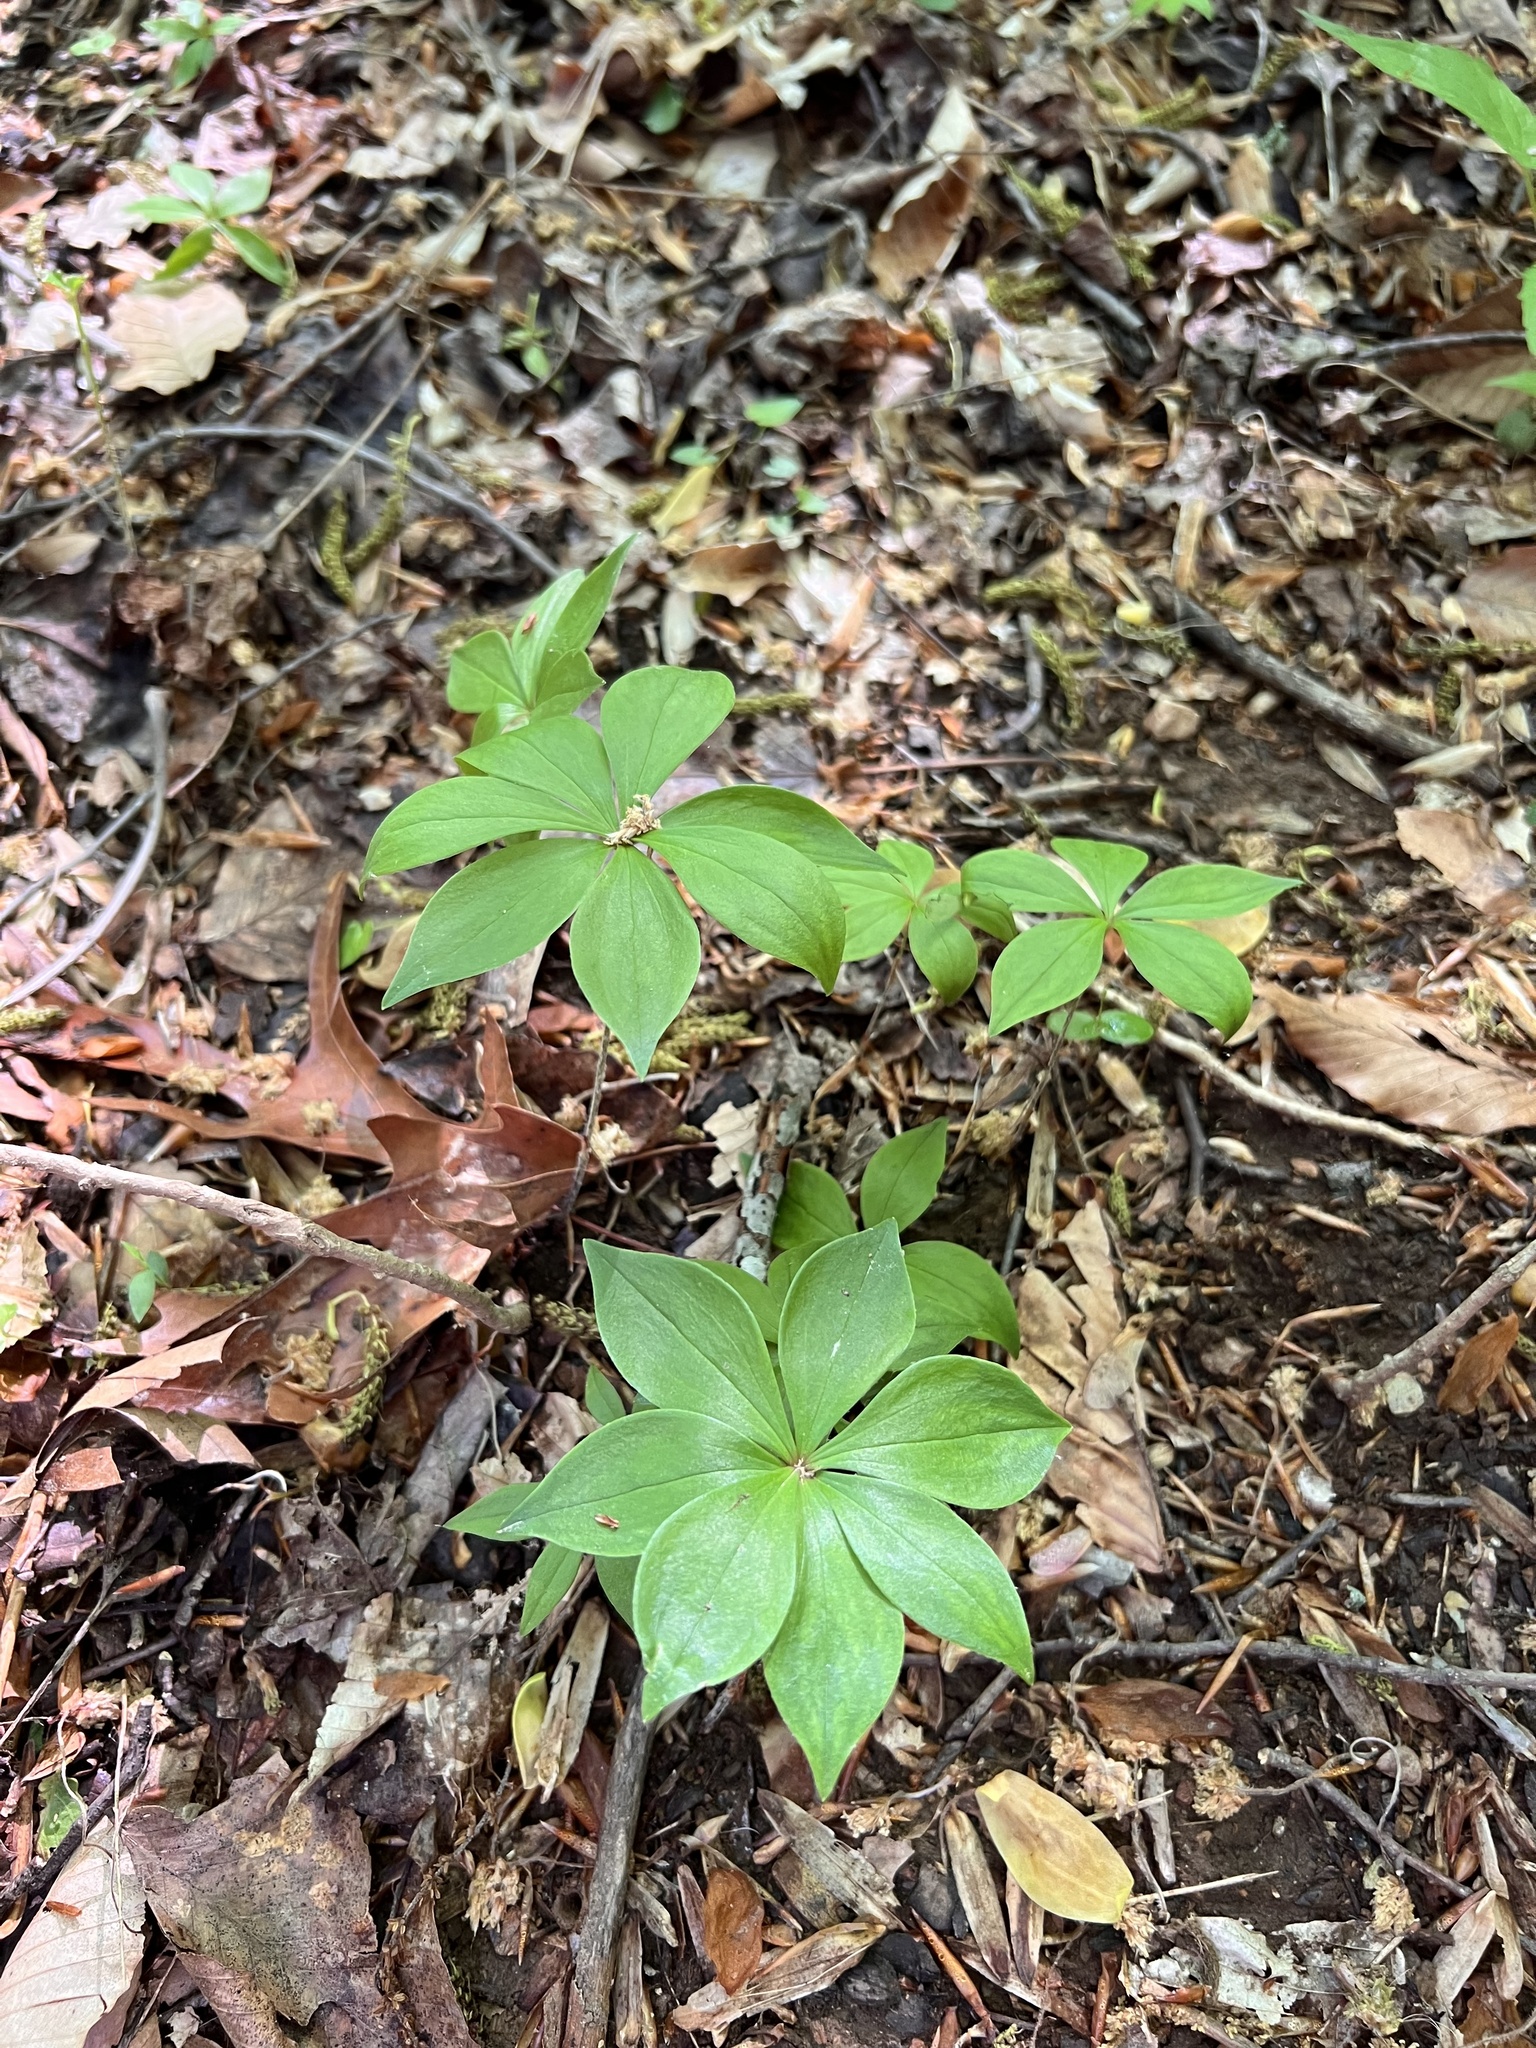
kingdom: Plantae
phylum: Tracheophyta
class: Liliopsida
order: Liliales
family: Liliaceae
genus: Medeola
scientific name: Medeola virginiana
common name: Indian cucumber-root
